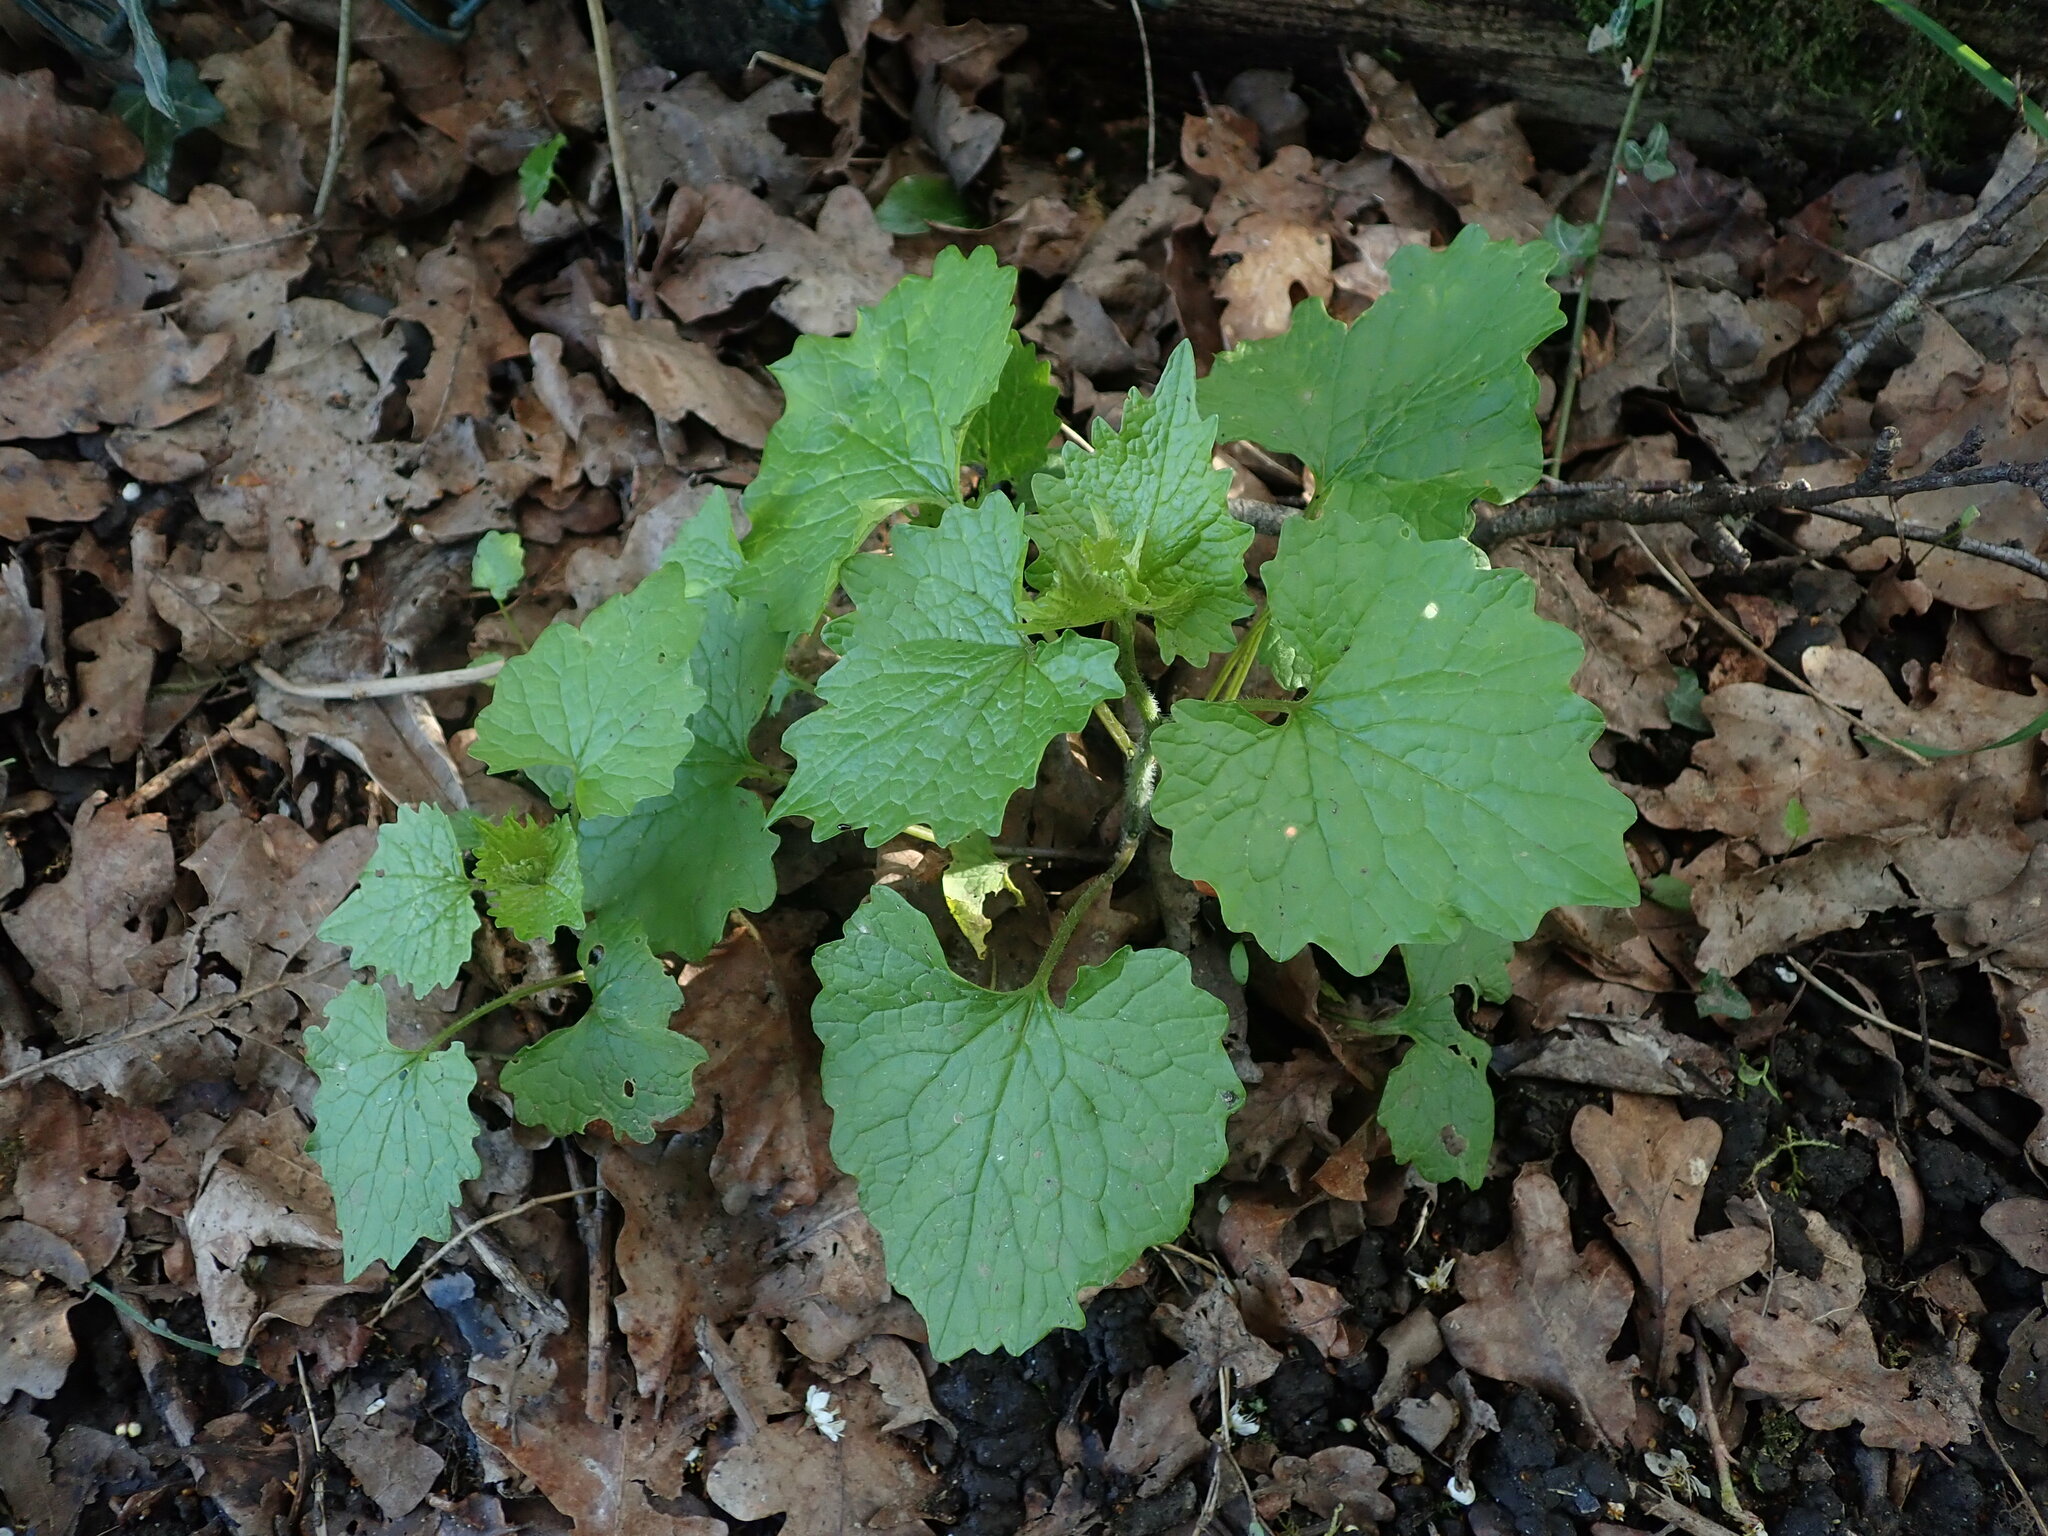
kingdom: Plantae
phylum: Tracheophyta
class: Magnoliopsida
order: Brassicales
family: Brassicaceae
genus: Alliaria
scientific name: Alliaria petiolata
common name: Garlic mustard
